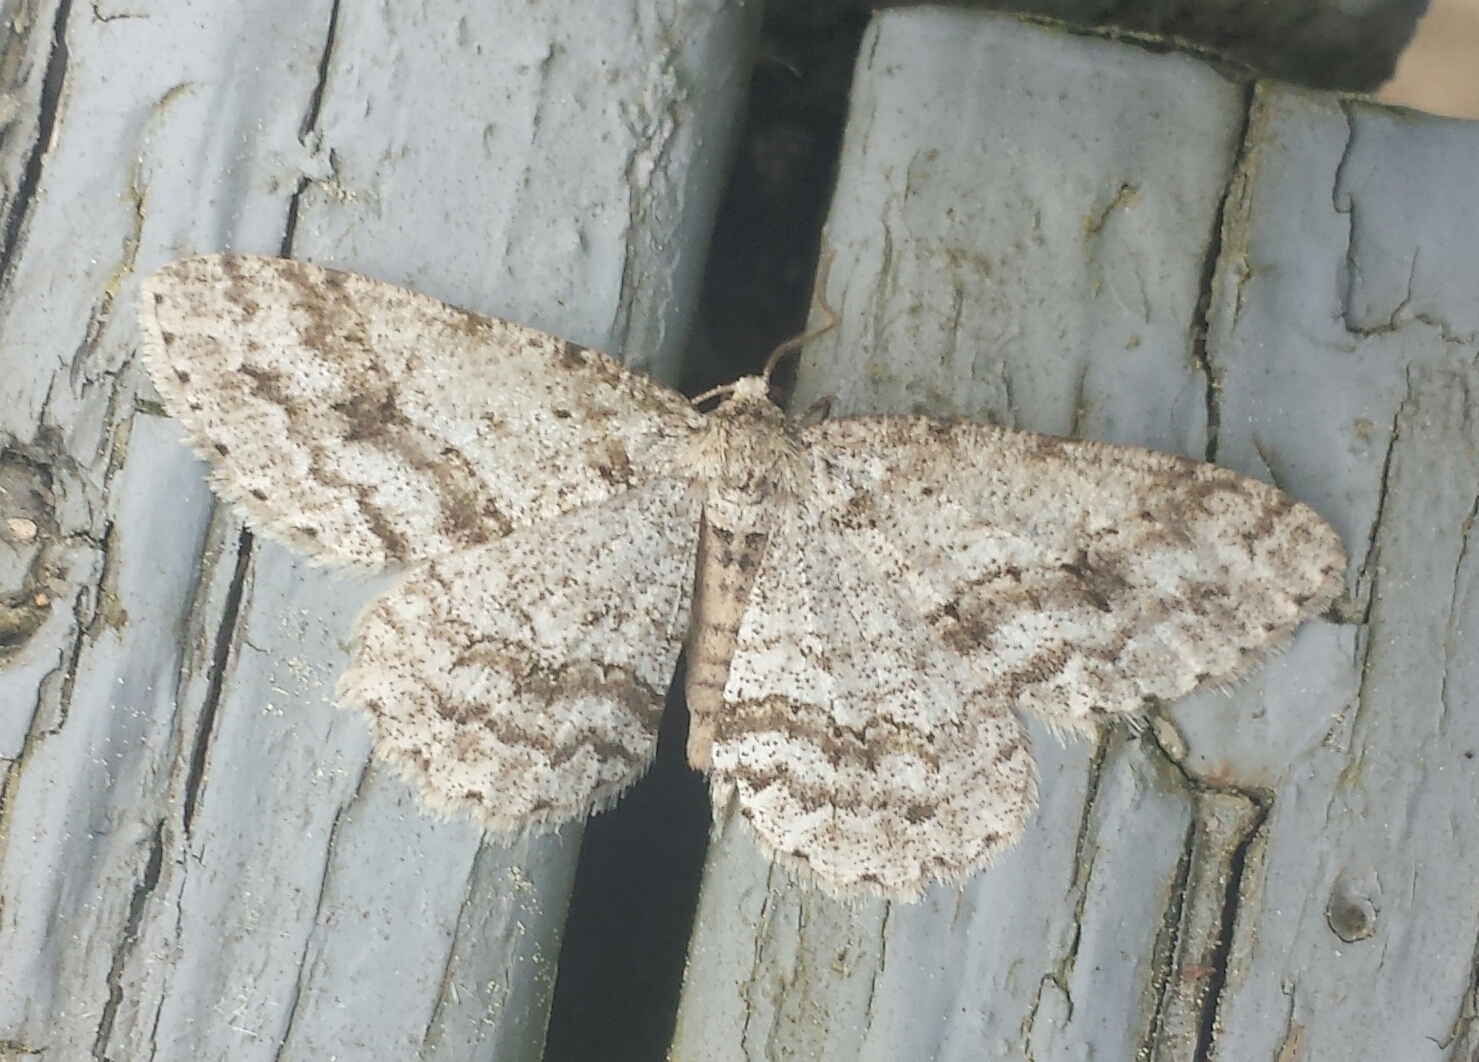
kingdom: Animalia
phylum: Arthropoda
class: Insecta
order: Lepidoptera
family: Geometridae
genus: Ectropis
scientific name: Ectropis crepuscularia
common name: Engrailed
